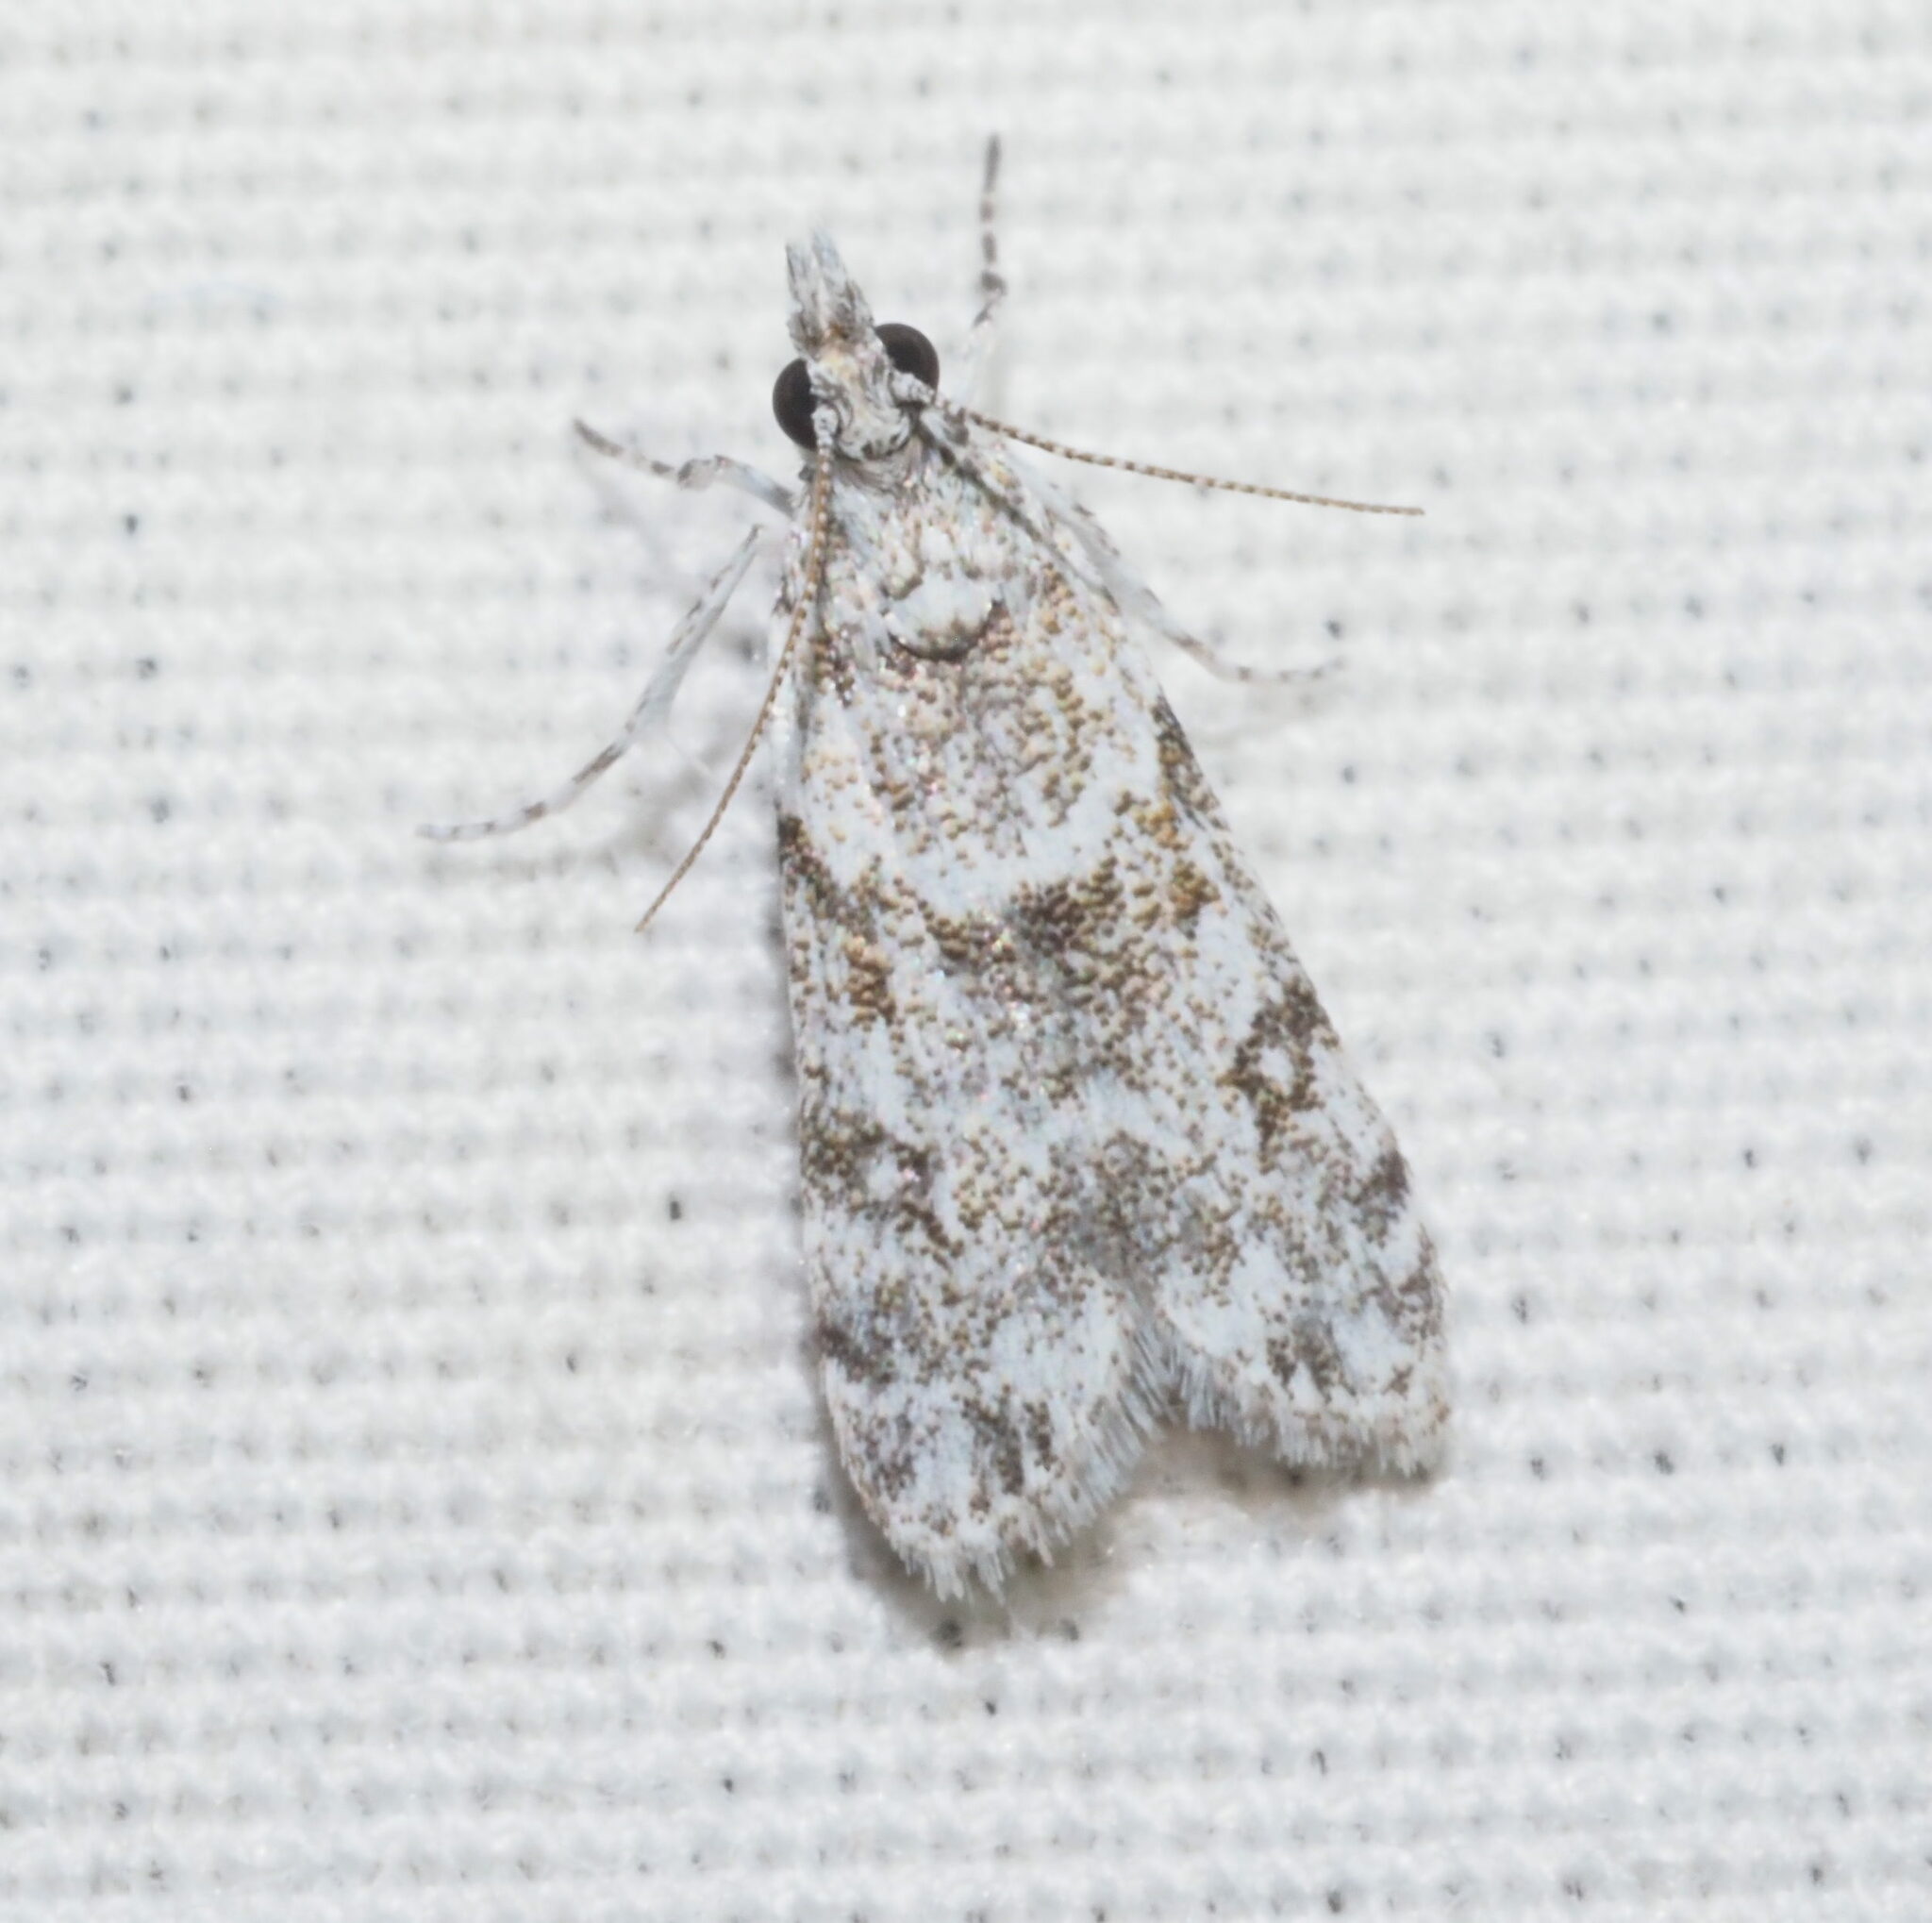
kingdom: Animalia
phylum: Arthropoda
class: Insecta
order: Lepidoptera
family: Crambidae
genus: Eudonia
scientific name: Eudonia geraea
